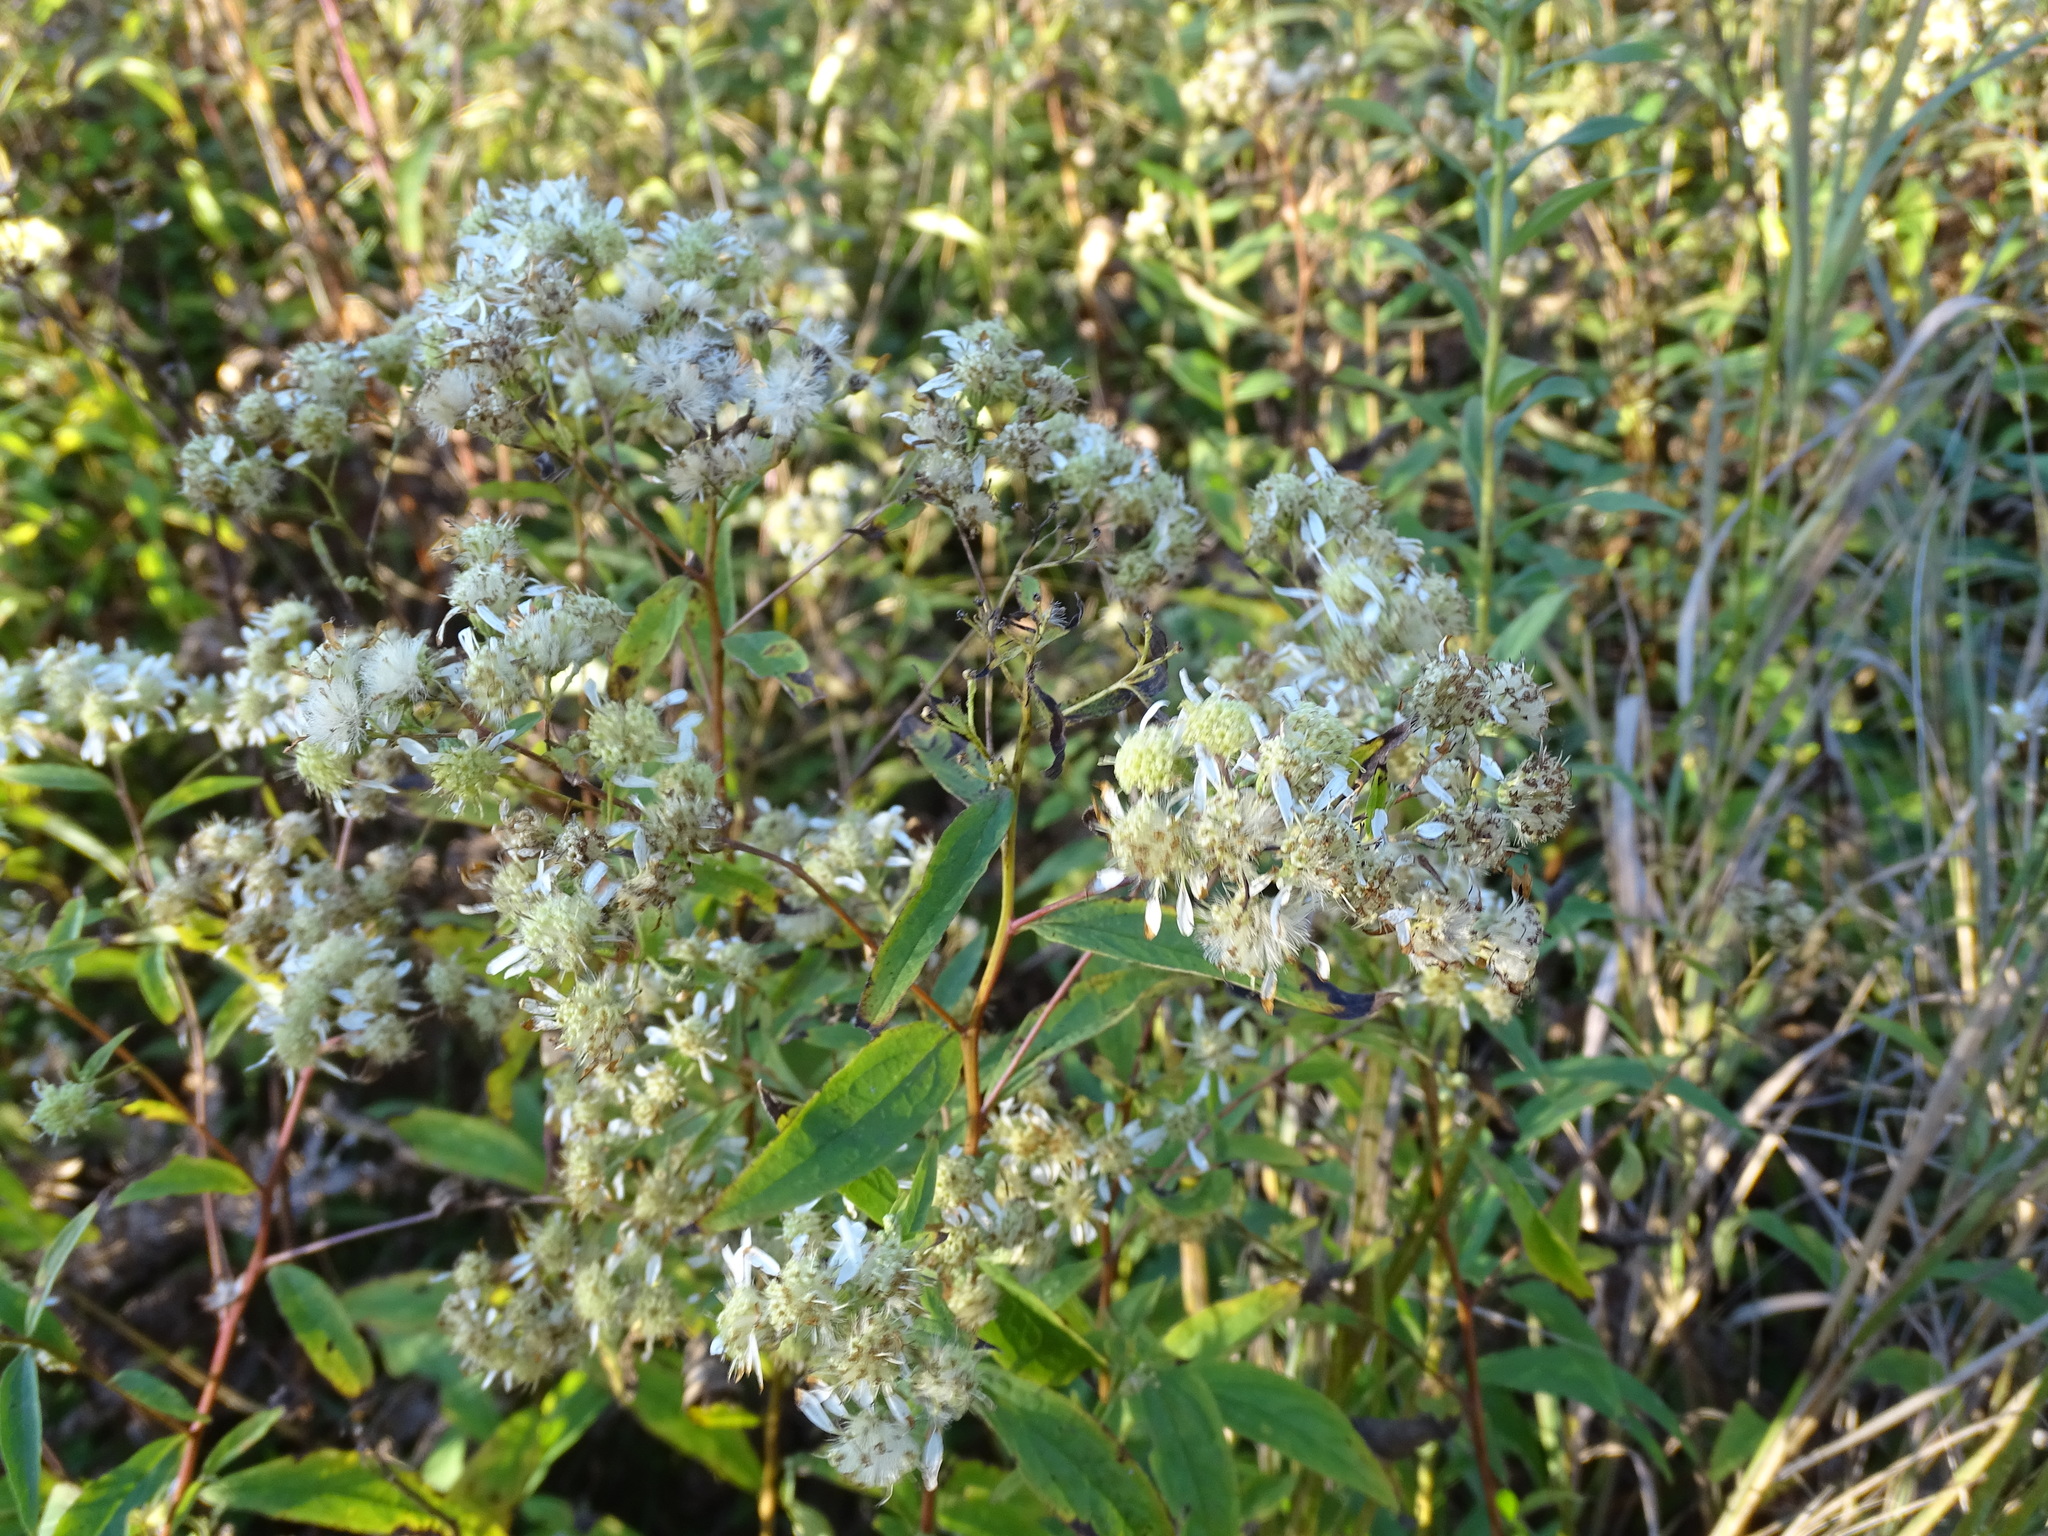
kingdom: Plantae
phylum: Tracheophyta
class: Magnoliopsida
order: Asterales
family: Asteraceae
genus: Doellingeria
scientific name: Doellingeria umbellata
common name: Flat-top white aster
